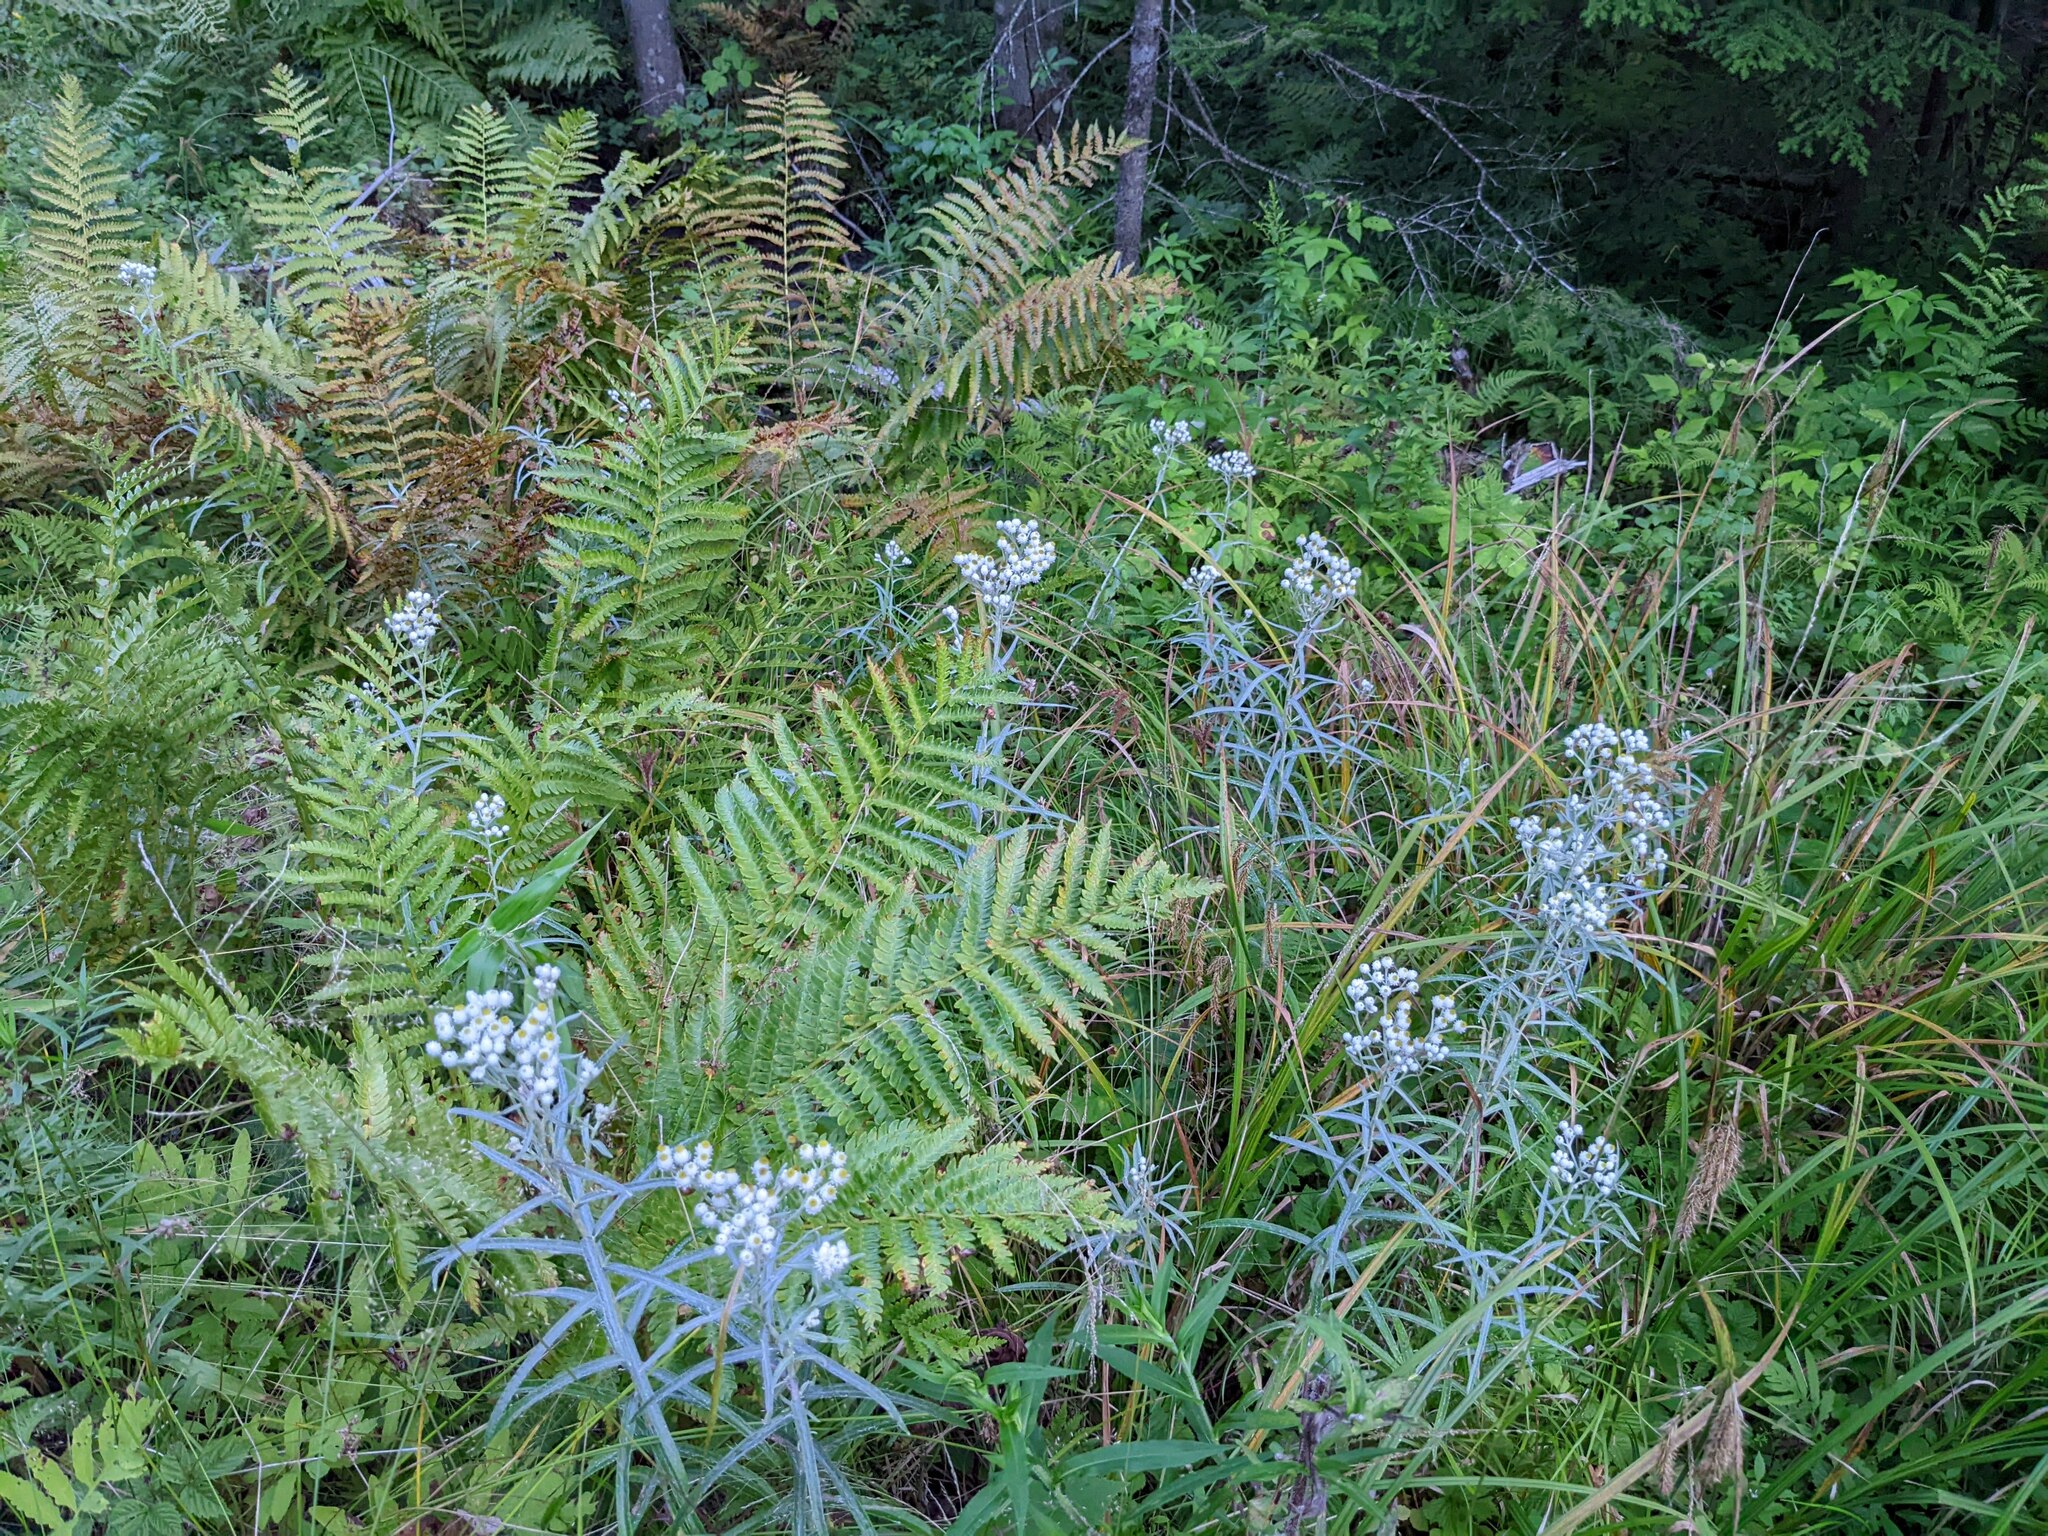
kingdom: Plantae
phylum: Tracheophyta
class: Polypodiopsida
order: Osmundales
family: Osmundaceae
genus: Osmundastrum
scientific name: Osmundastrum cinnamomeum
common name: Cinnamon fern
